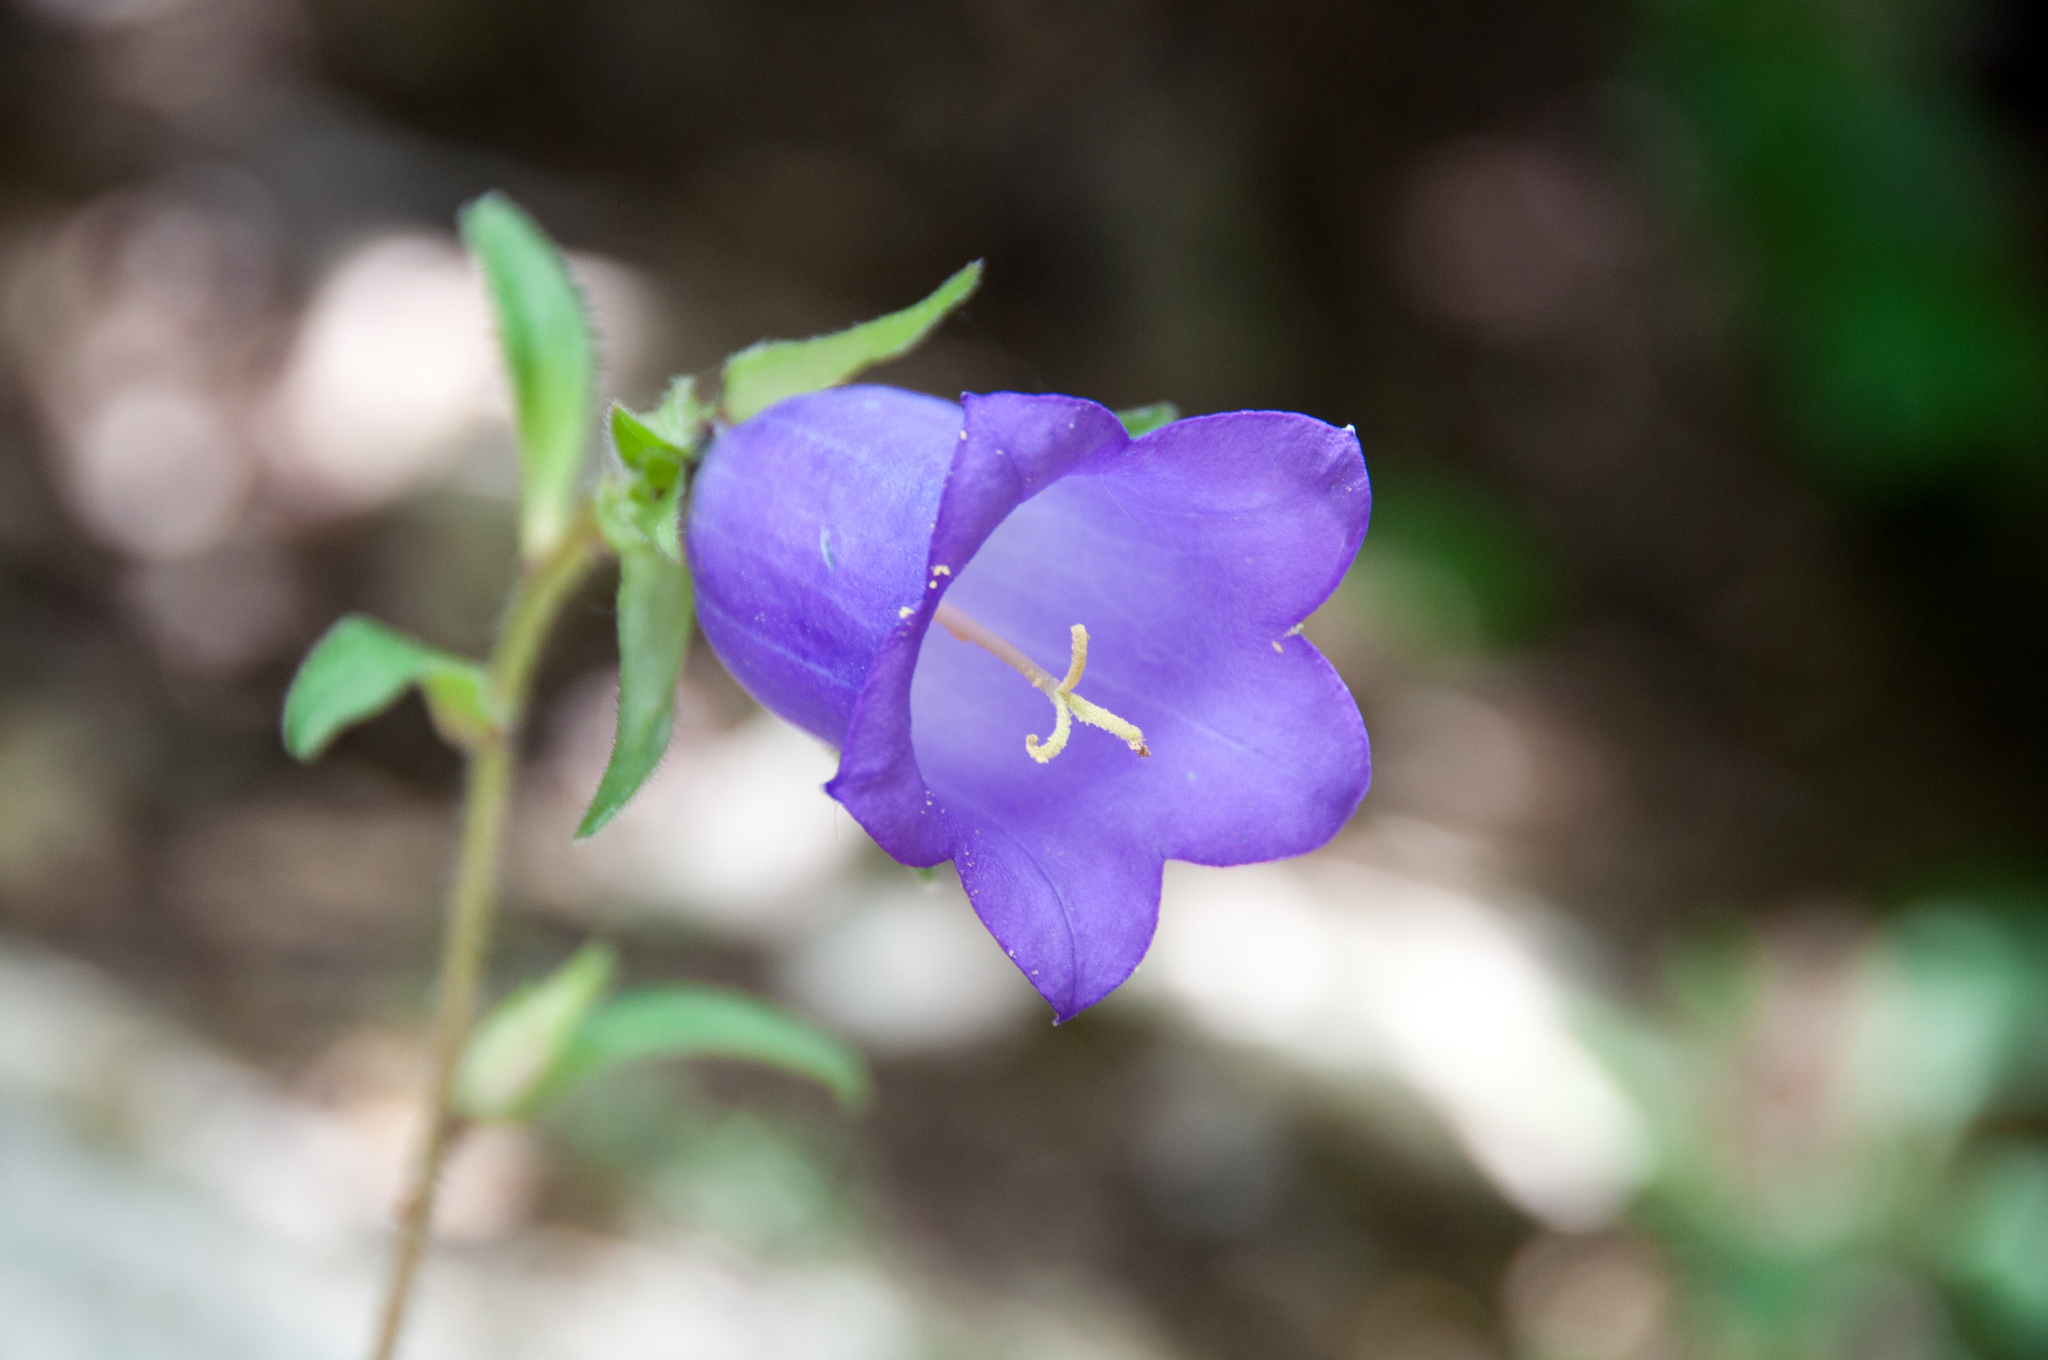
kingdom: Plantae
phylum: Tracheophyta
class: Magnoliopsida
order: Asterales
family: Campanulaceae
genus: Campanula
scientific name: Campanula medium
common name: Canterbury bells
